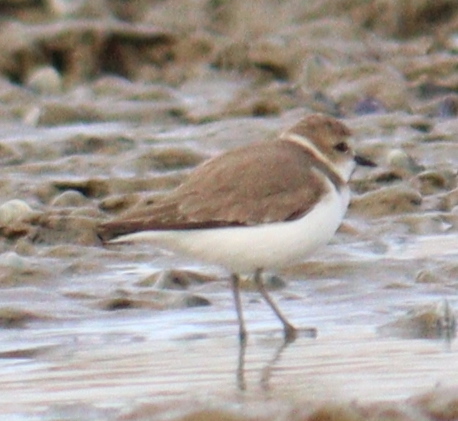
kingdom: Animalia
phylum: Chordata
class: Aves
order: Charadriiformes
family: Charadriidae
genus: Charadrius
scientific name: Charadrius alexandrinus
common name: Kentish plover
